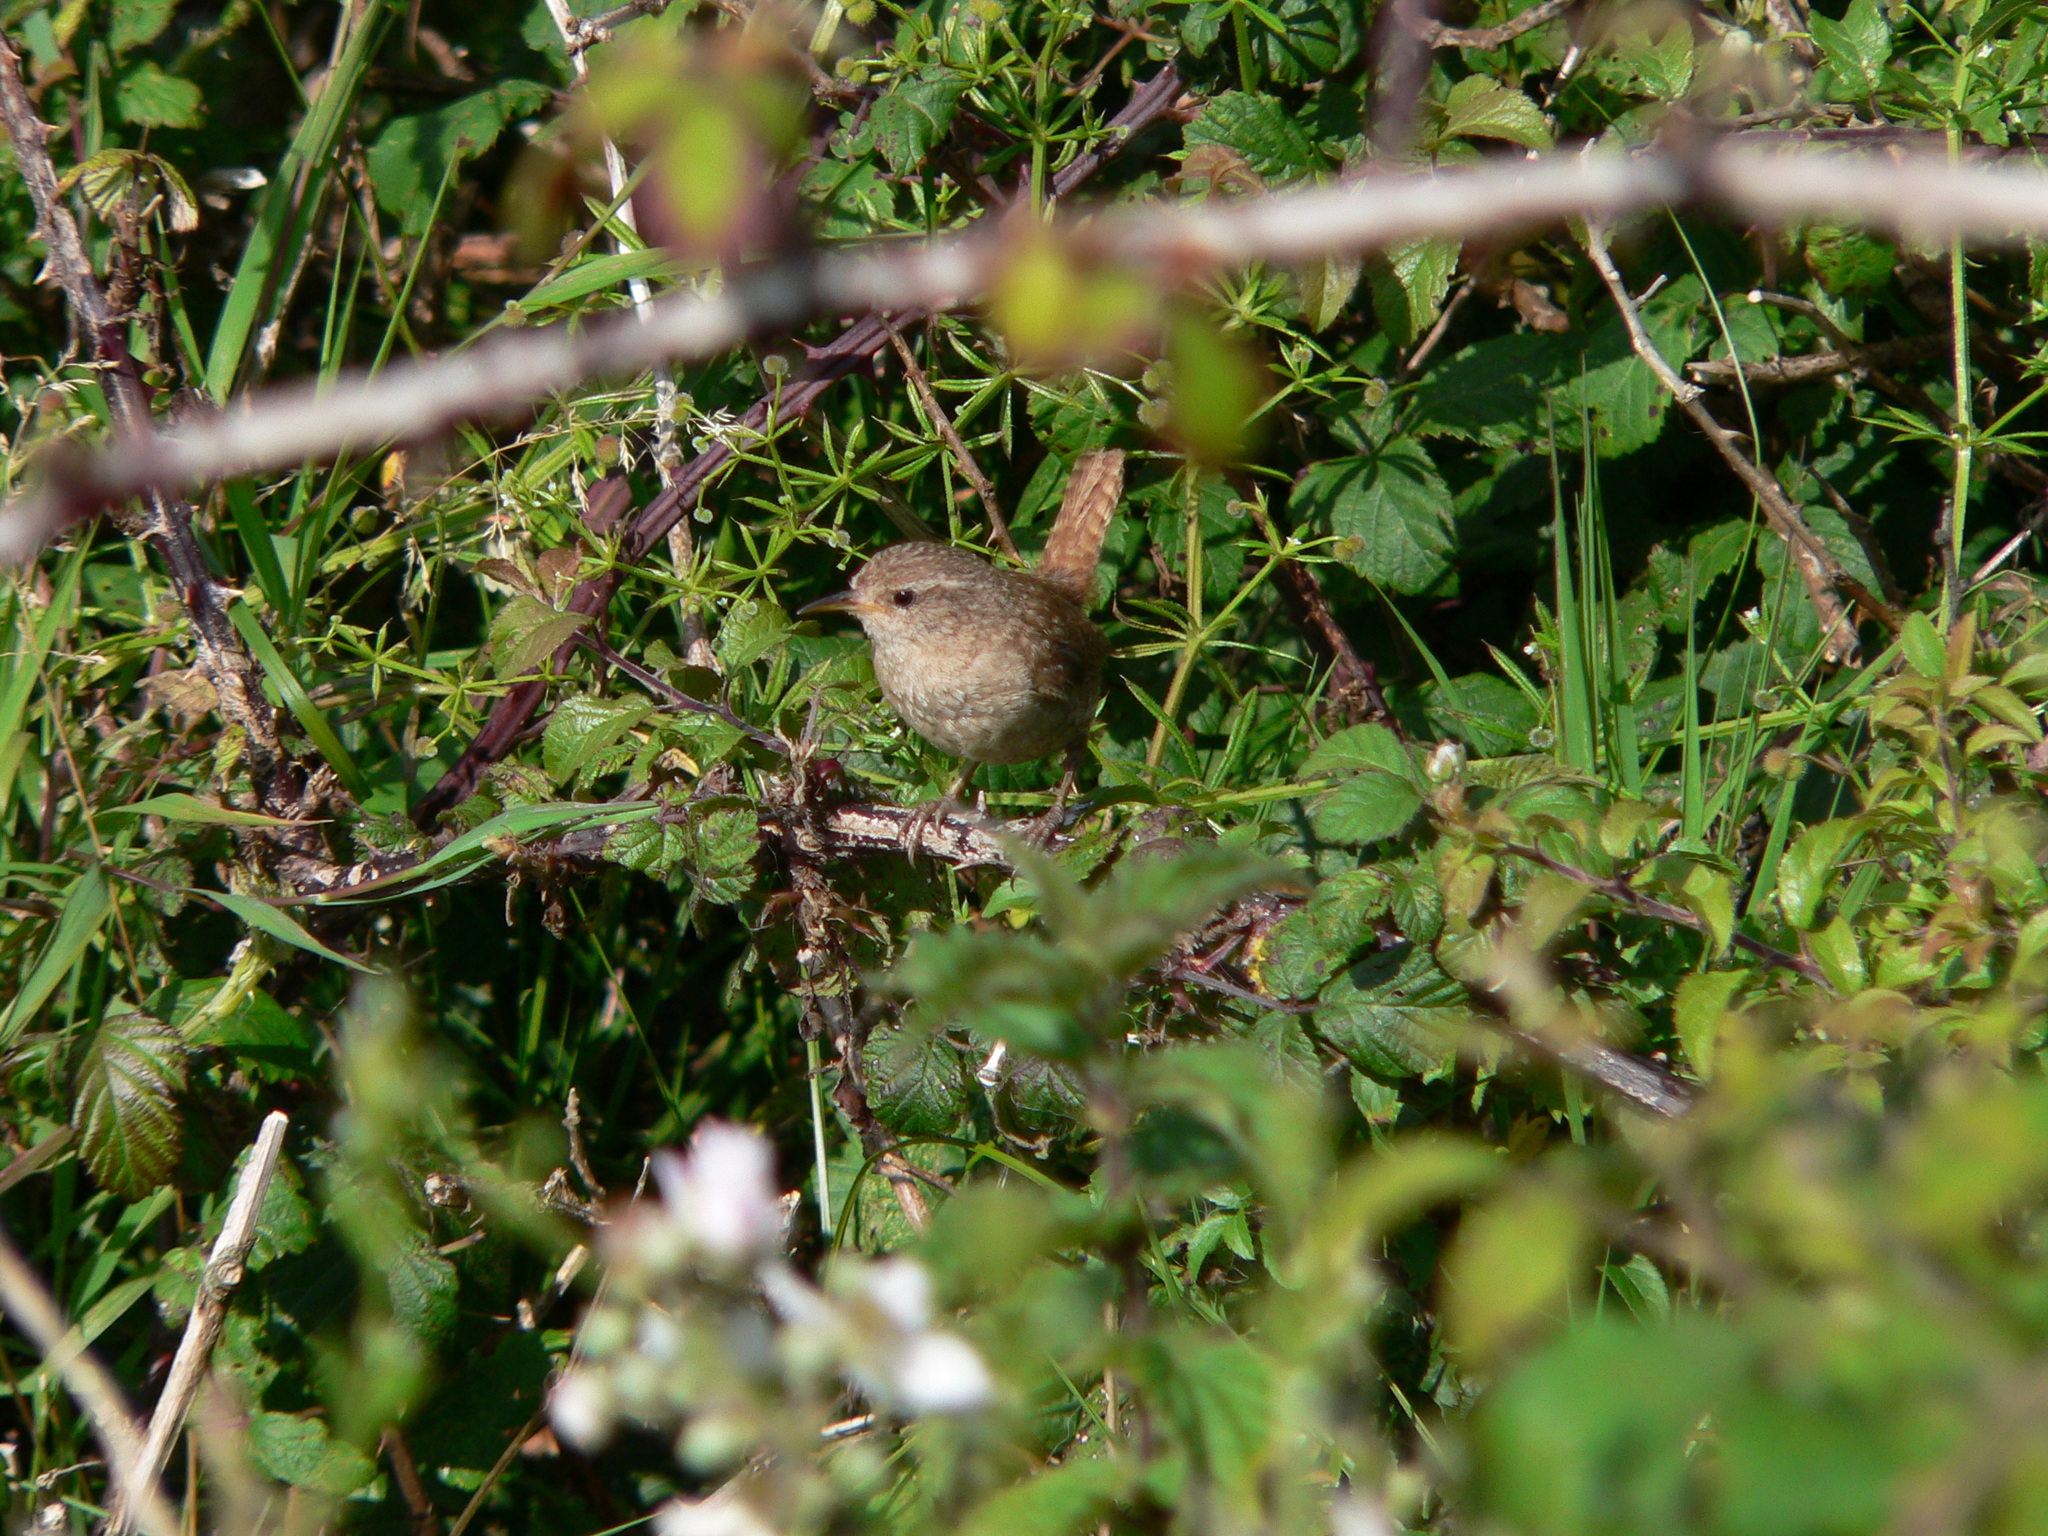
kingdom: Animalia
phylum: Chordata
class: Aves
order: Passeriformes
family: Troglodytidae
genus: Troglodytes
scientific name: Troglodytes troglodytes
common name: Eurasian wren
